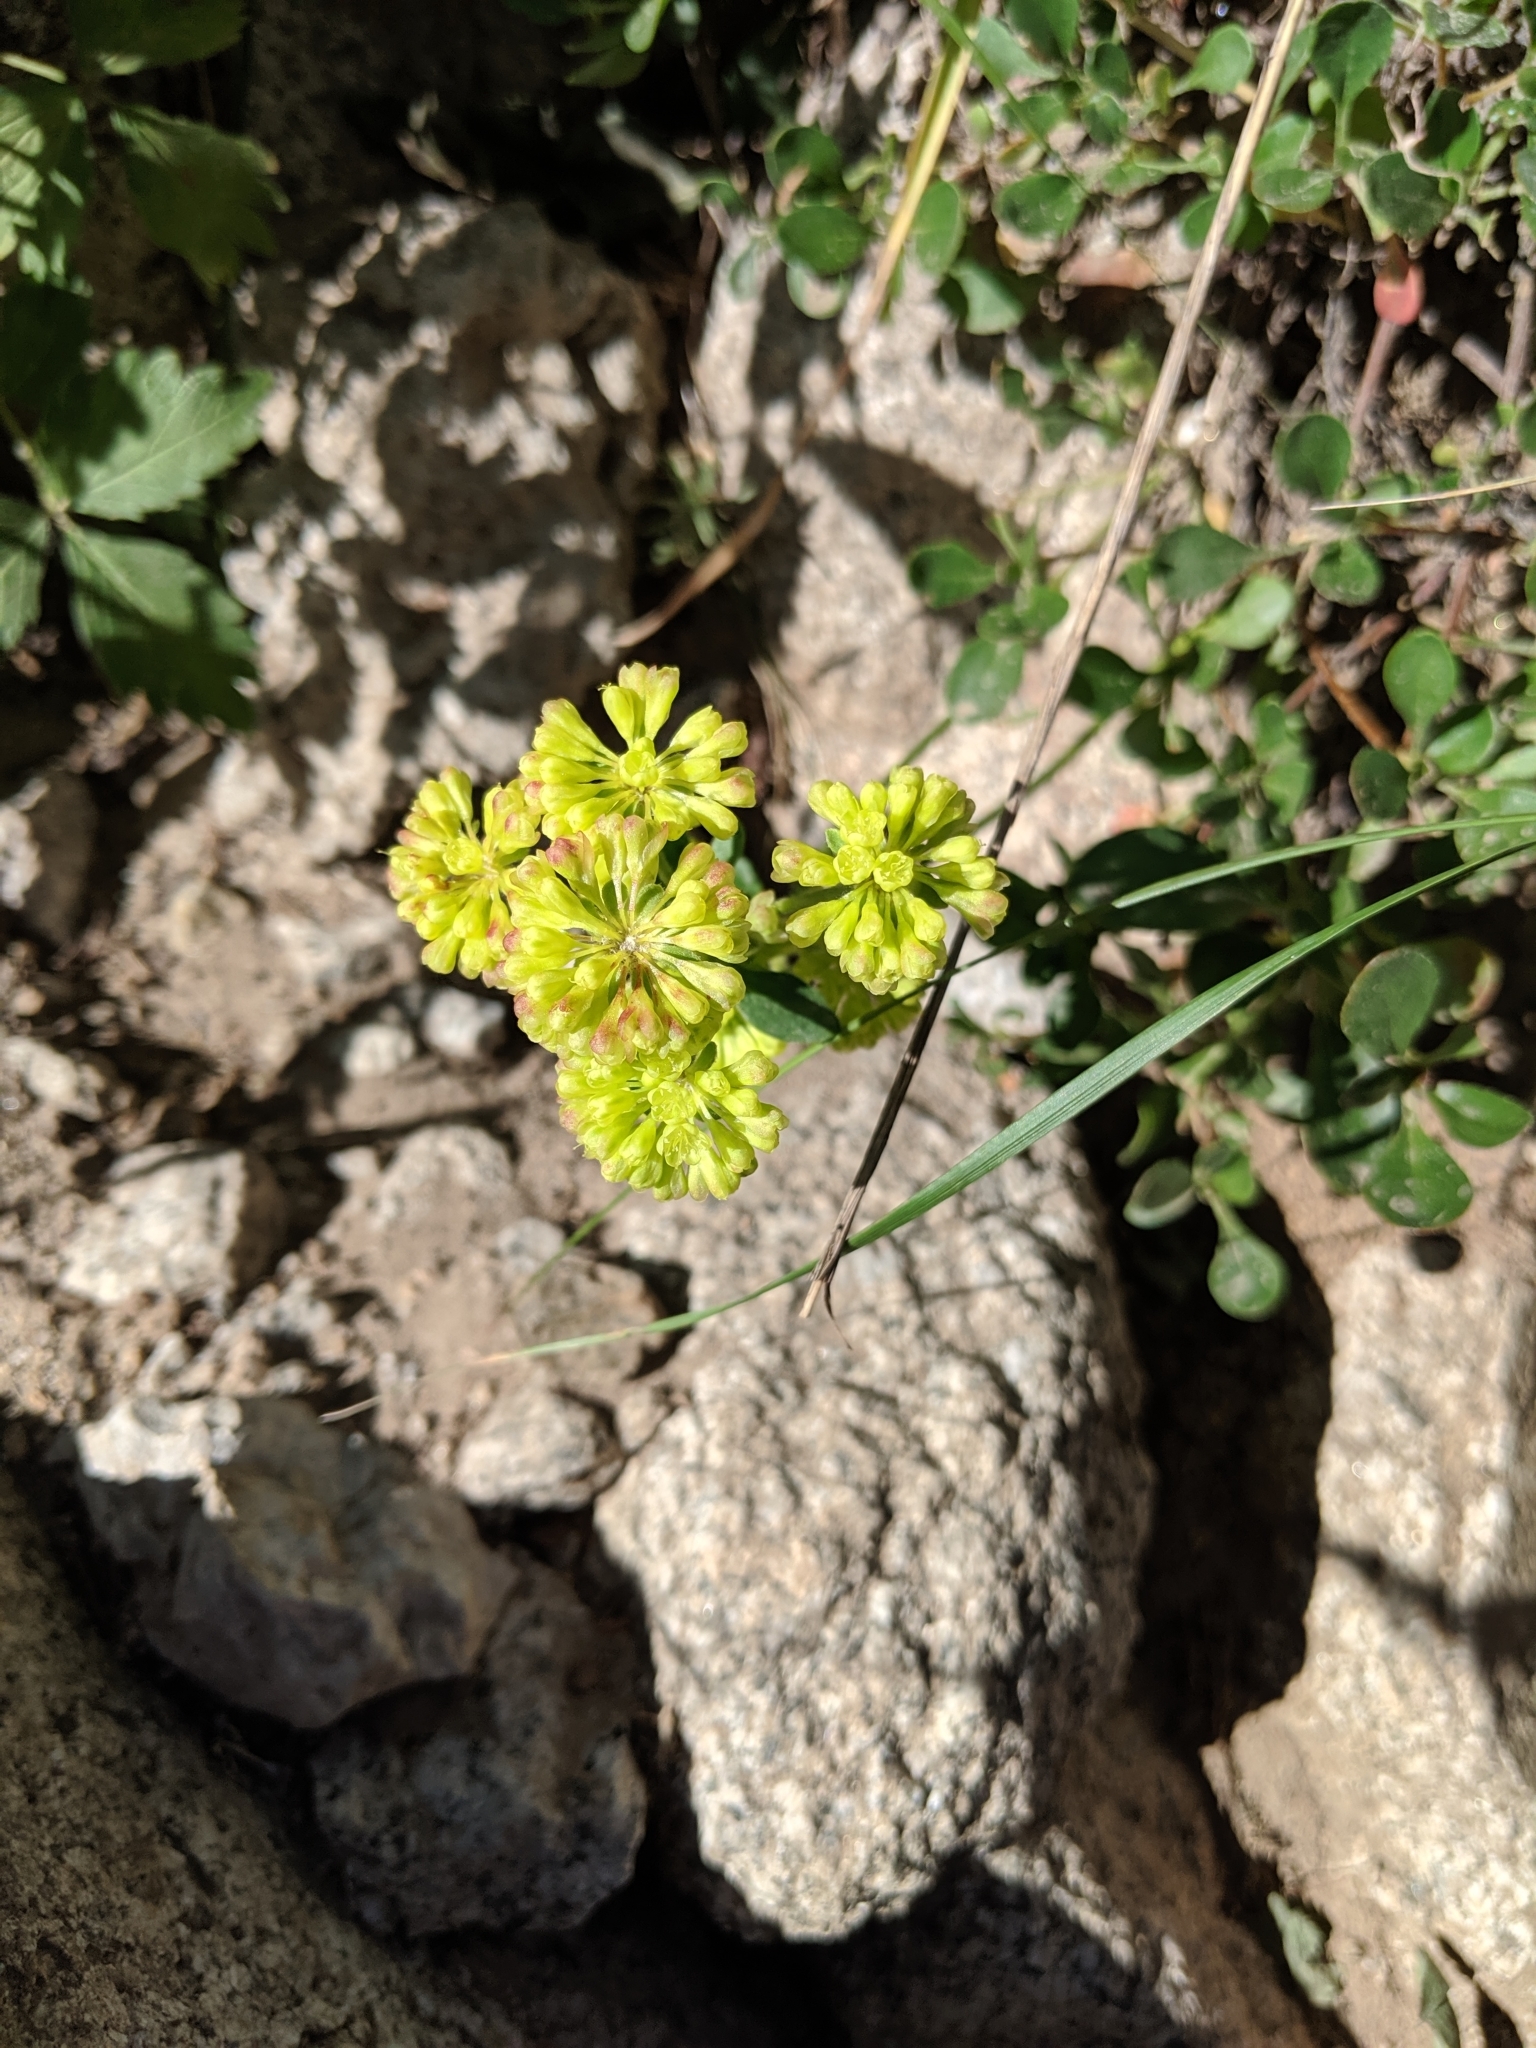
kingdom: Plantae
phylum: Tracheophyta
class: Magnoliopsida
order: Caryophyllales
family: Polygonaceae
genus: Eriogonum
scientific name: Eriogonum umbellatum
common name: Sulfur-buckwheat
